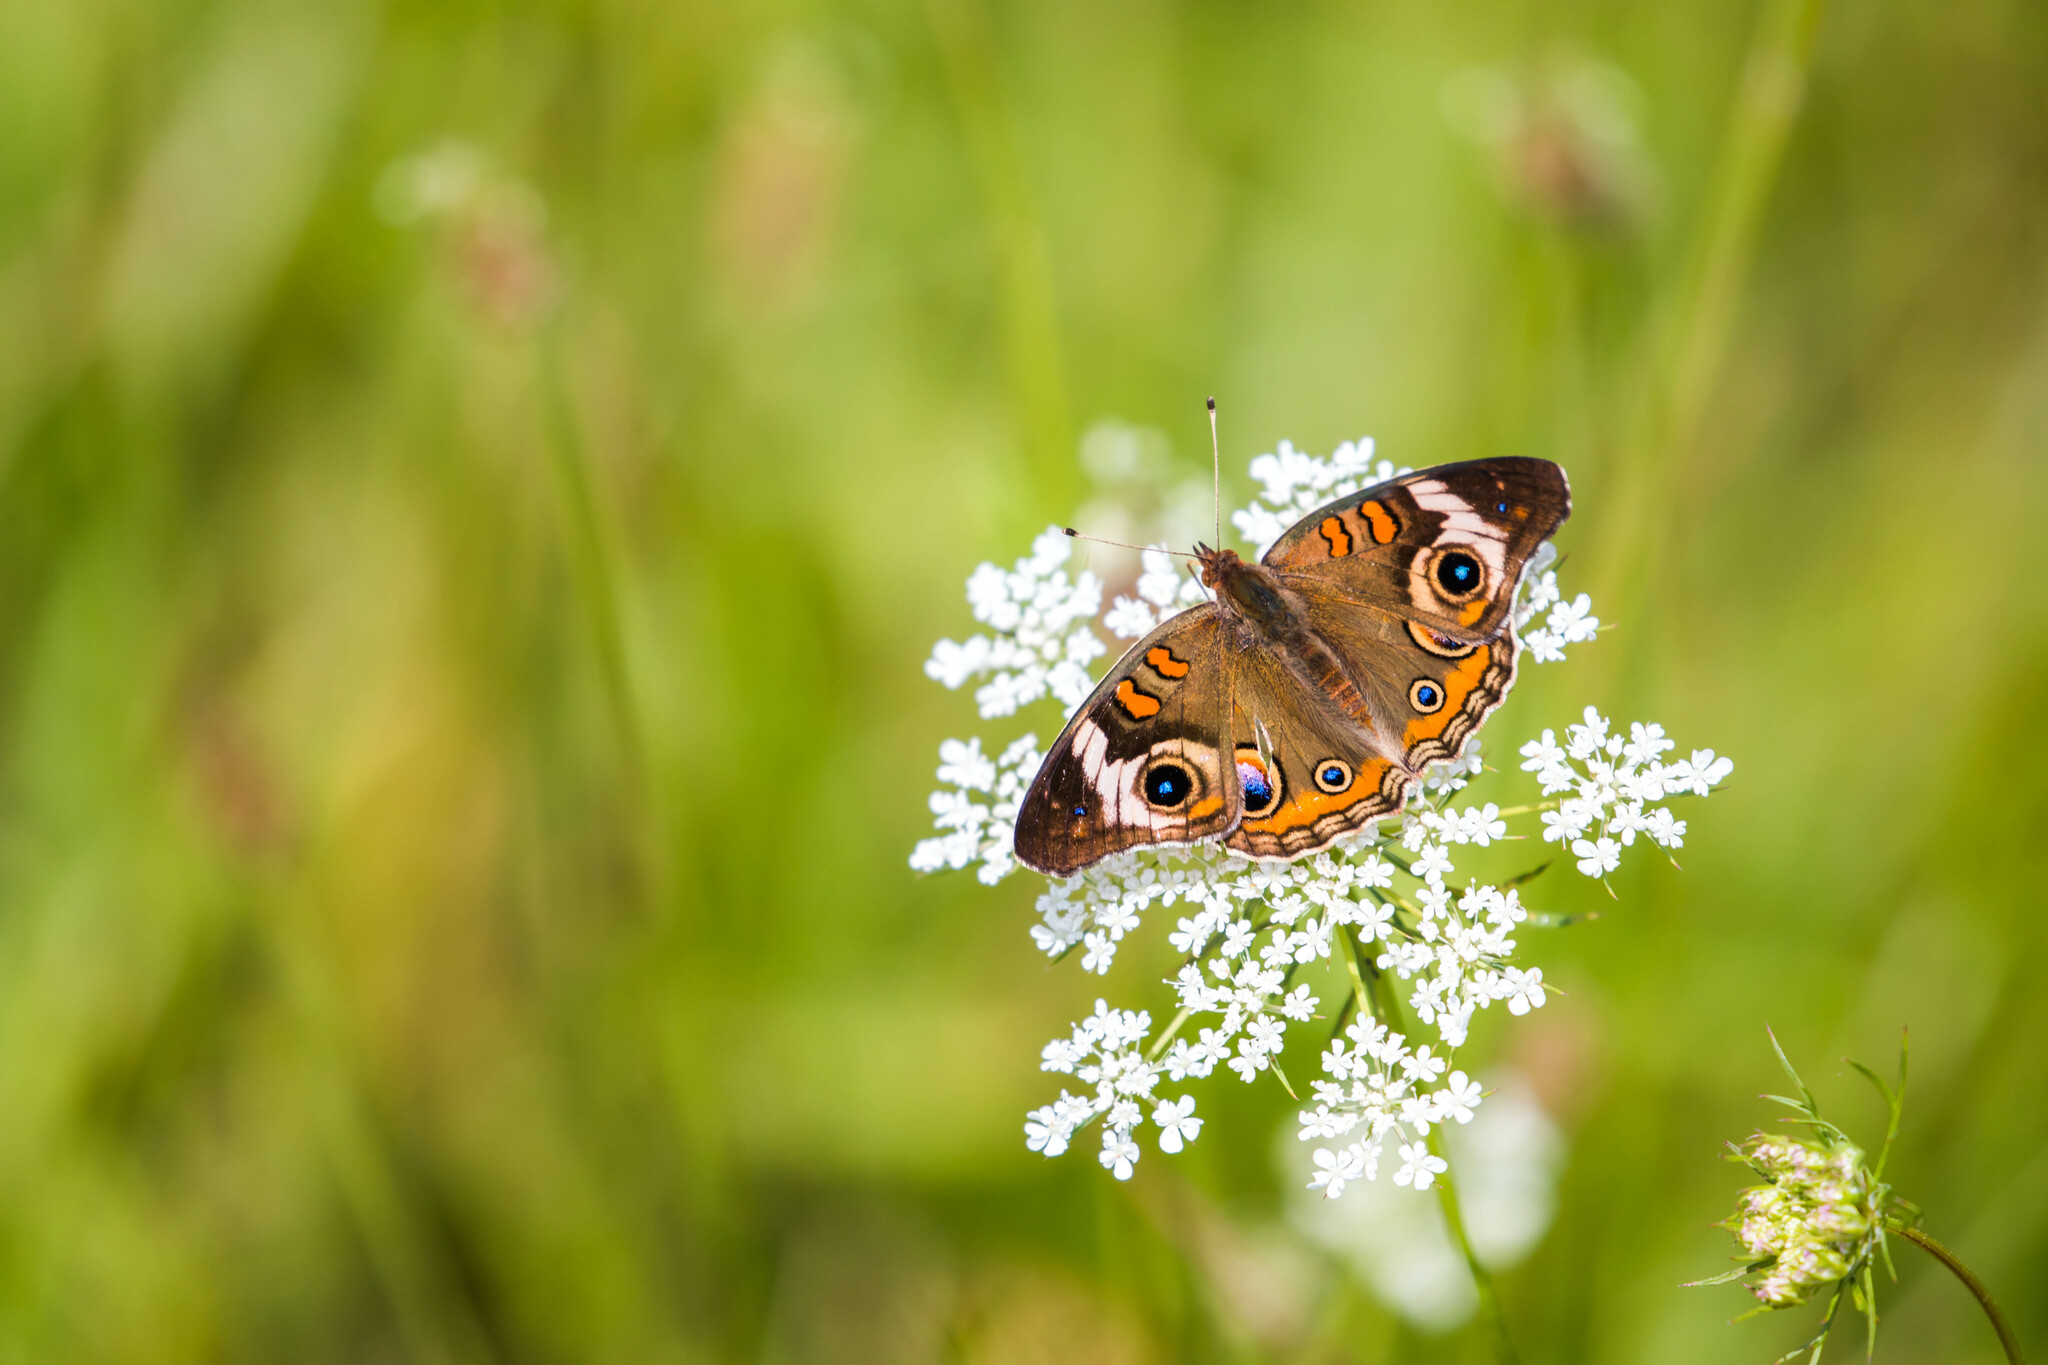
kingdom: Animalia
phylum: Arthropoda
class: Insecta
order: Lepidoptera
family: Nymphalidae
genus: Junonia
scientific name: Junonia coenia
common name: Common buckeye
